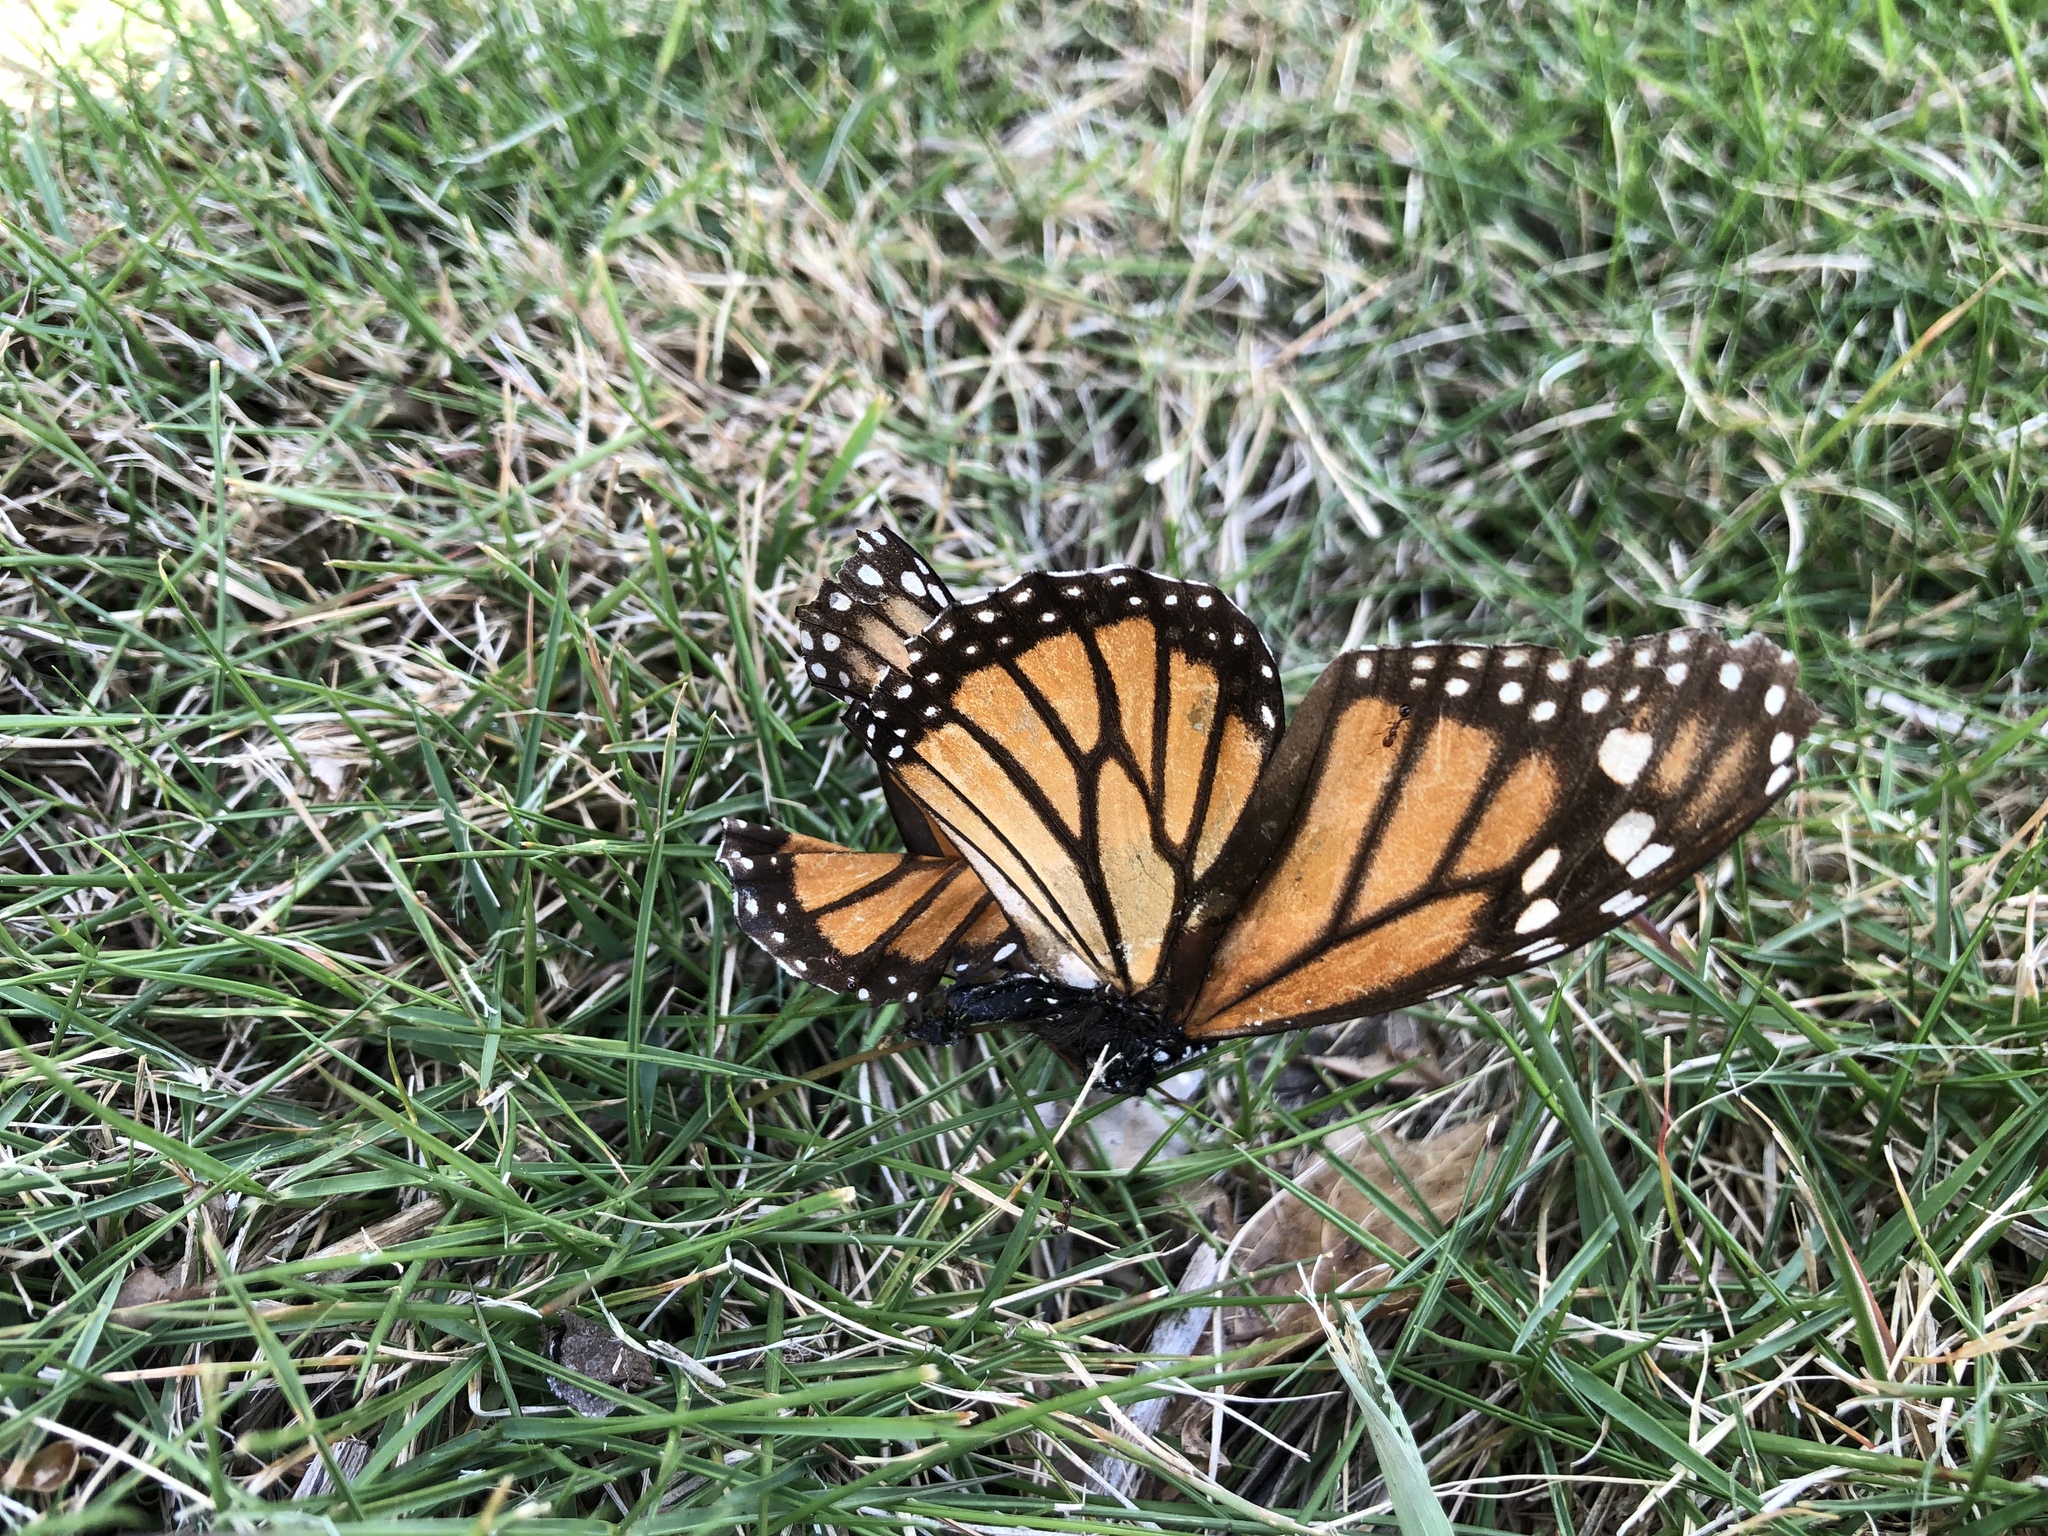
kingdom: Animalia
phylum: Arthropoda
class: Insecta
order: Lepidoptera
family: Nymphalidae
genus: Danaus
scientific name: Danaus plexippus
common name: Monarch
